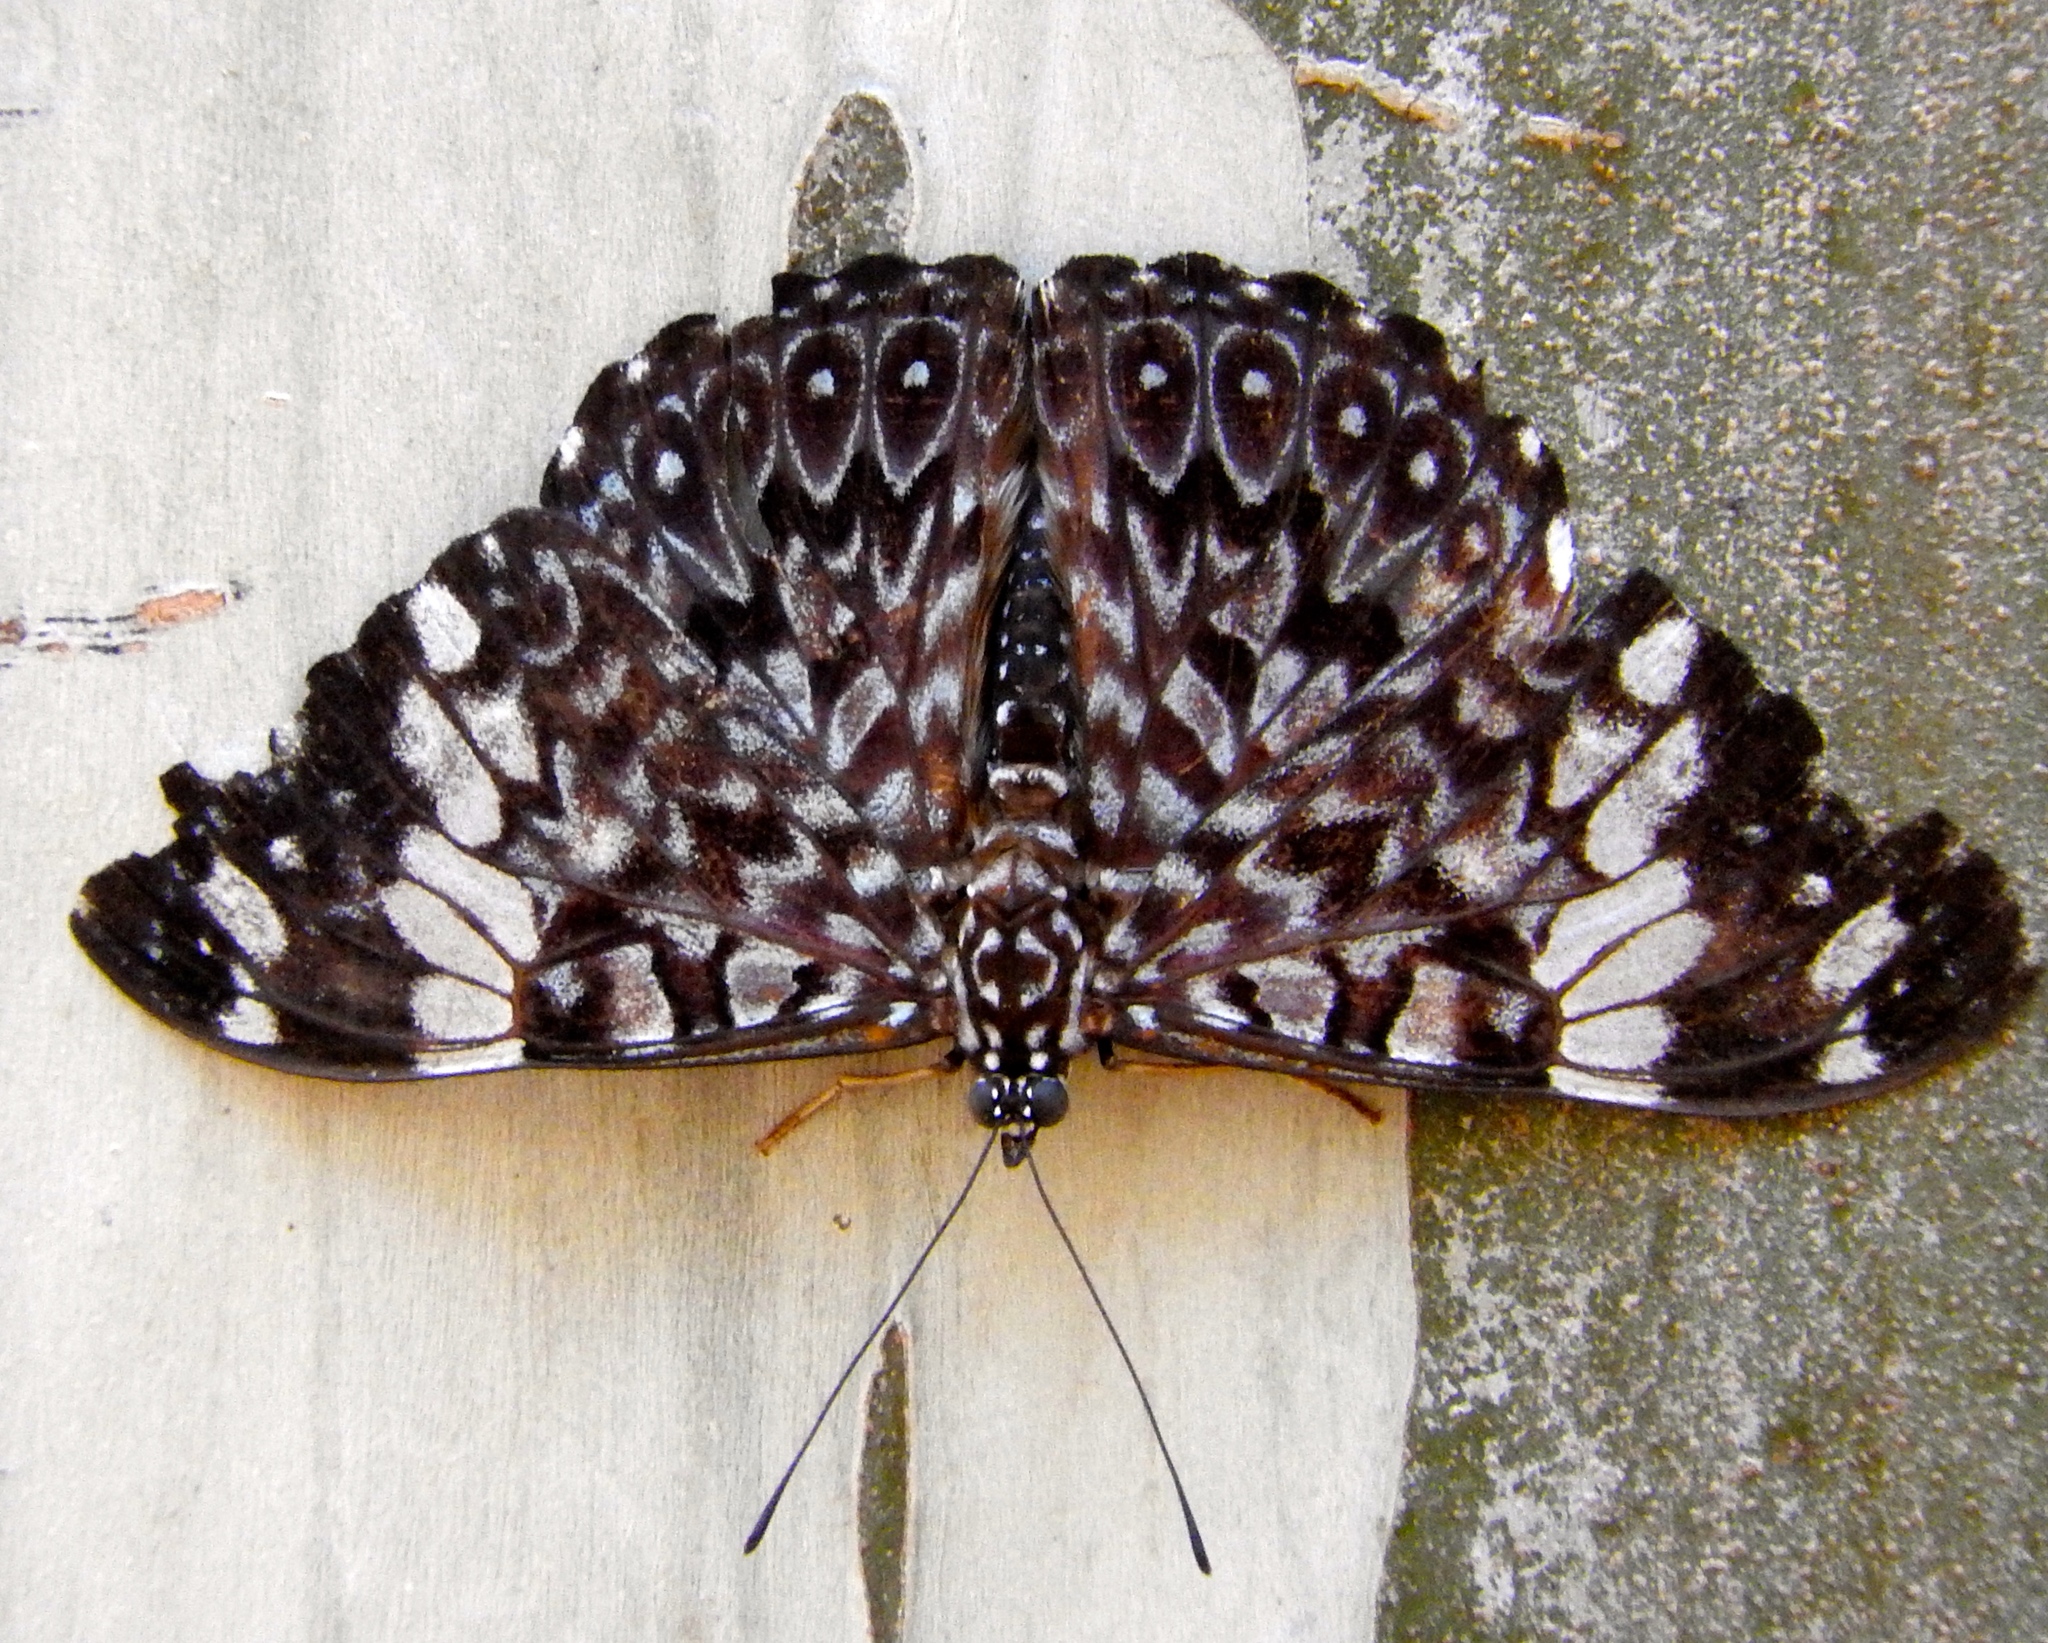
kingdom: Animalia
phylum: Arthropoda
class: Insecta
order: Lepidoptera
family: Nymphalidae
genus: Hamadryas
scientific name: Hamadryas amphinome
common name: Red cracker
